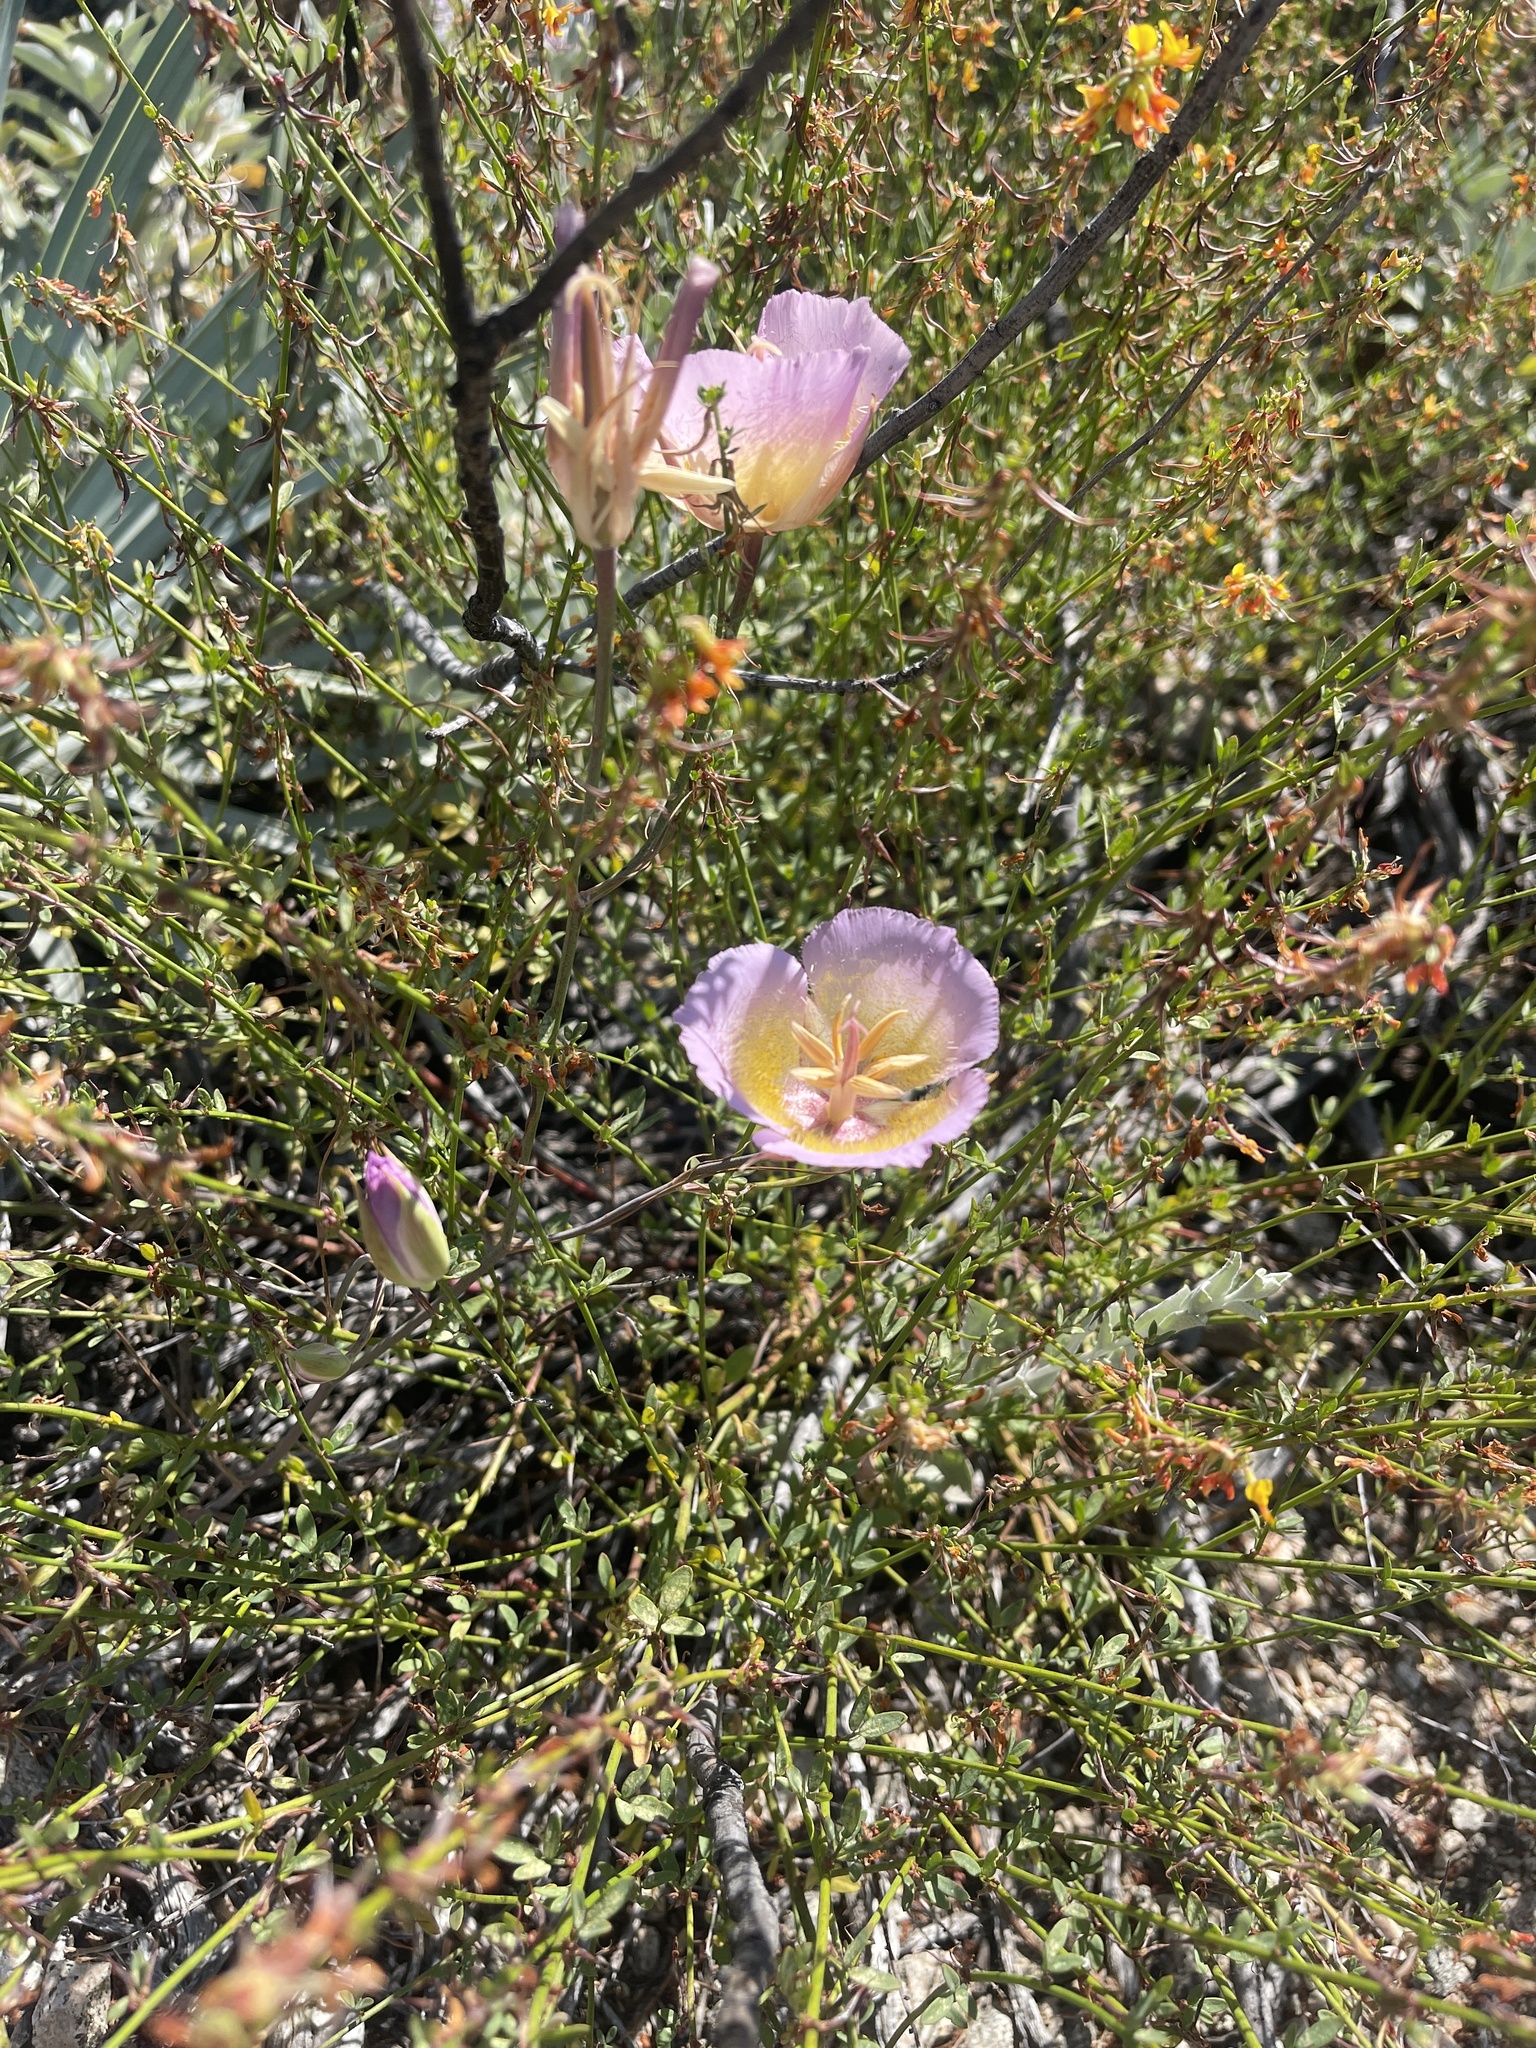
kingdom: Plantae
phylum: Tracheophyta
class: Liliopsida
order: Liliales
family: Liliaceae
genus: Calochortus
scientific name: Calochortus plummerae
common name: Plummer's mariposa-lily
